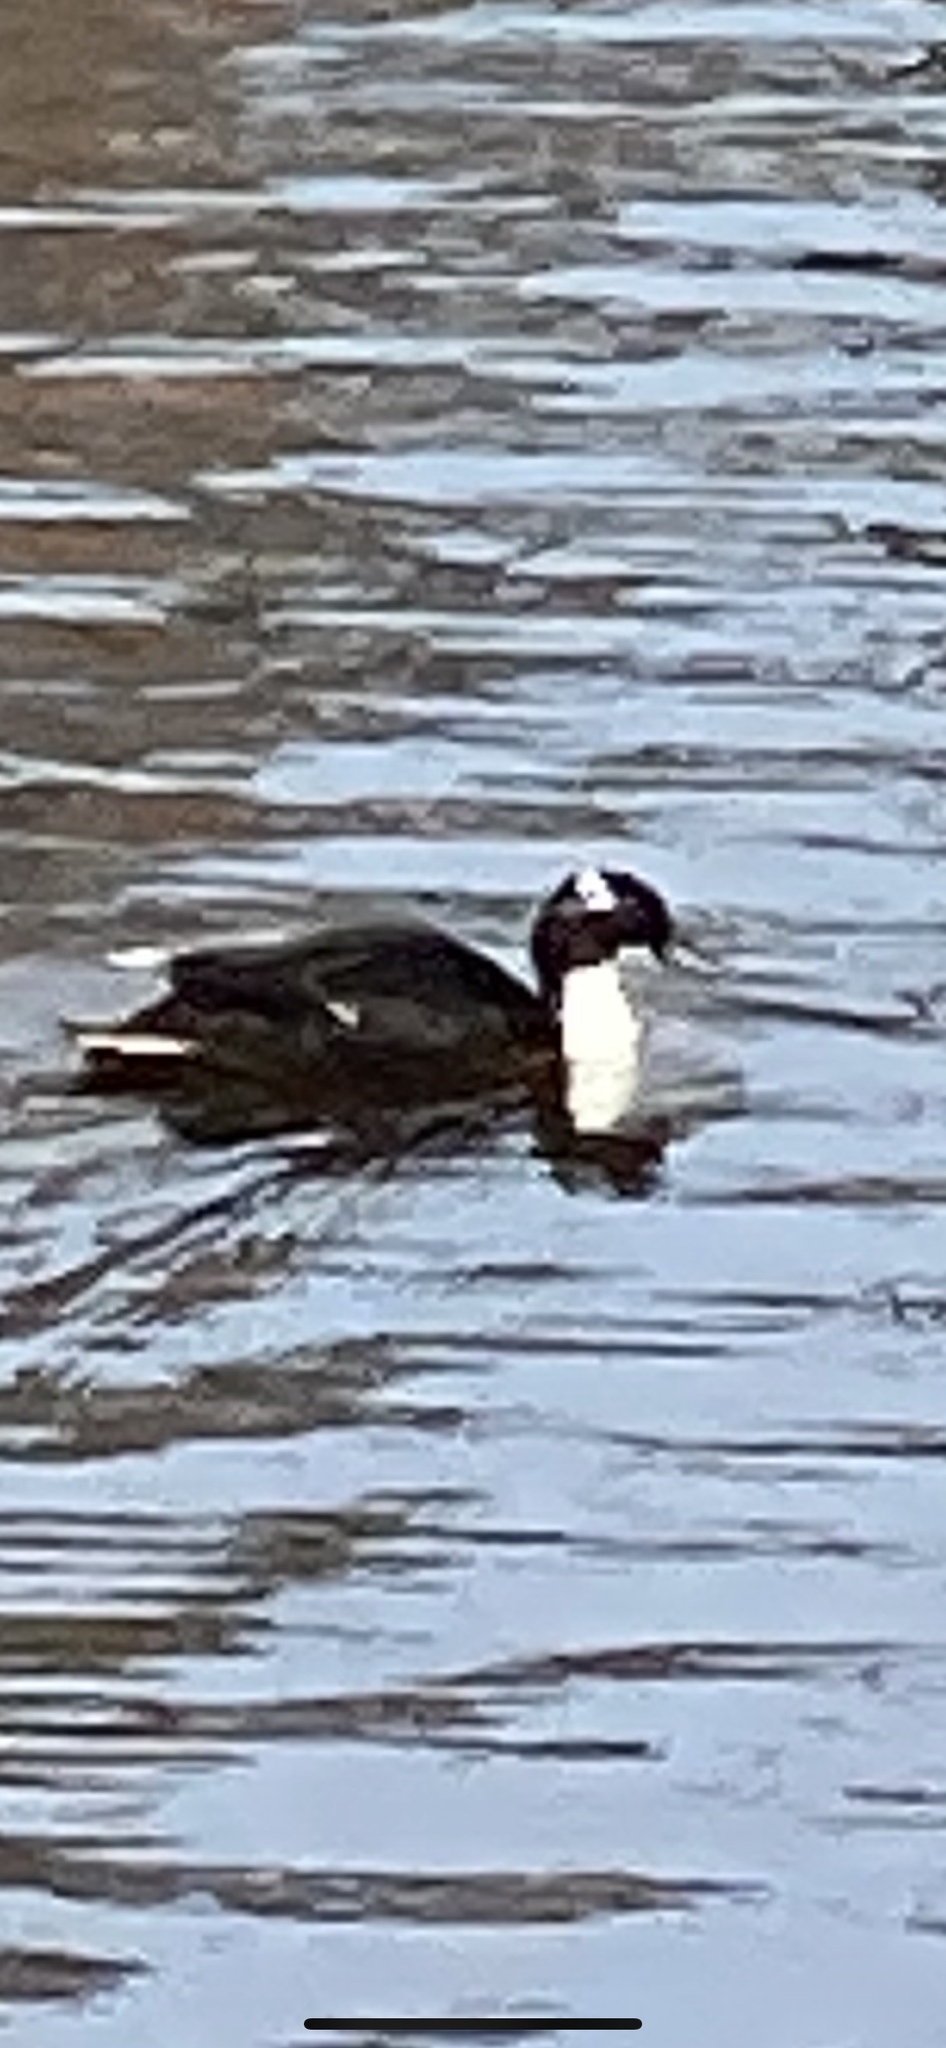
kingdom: Animalia
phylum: Chordata
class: Aves
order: Anseriformes
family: Anatidae
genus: Anas
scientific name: Anas platyrhynchos
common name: Mallard
